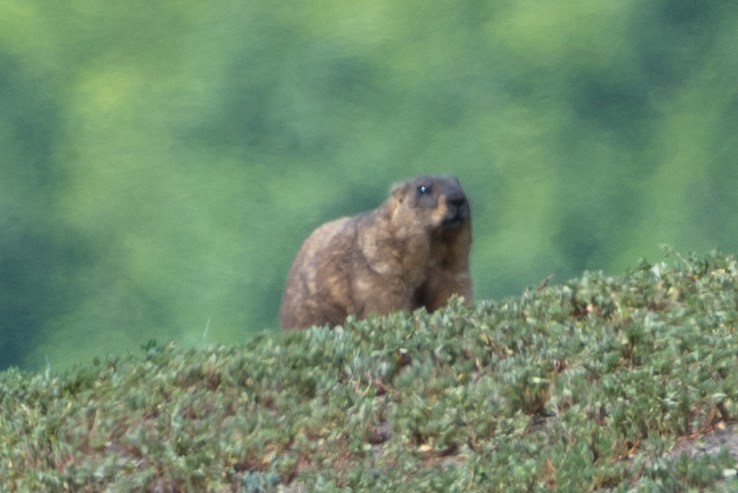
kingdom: Animalia
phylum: Chordata
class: Mammalia
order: Rodentia
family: Sciuridae
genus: Marmota
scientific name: Marmota bobak
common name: Bobak marmot
